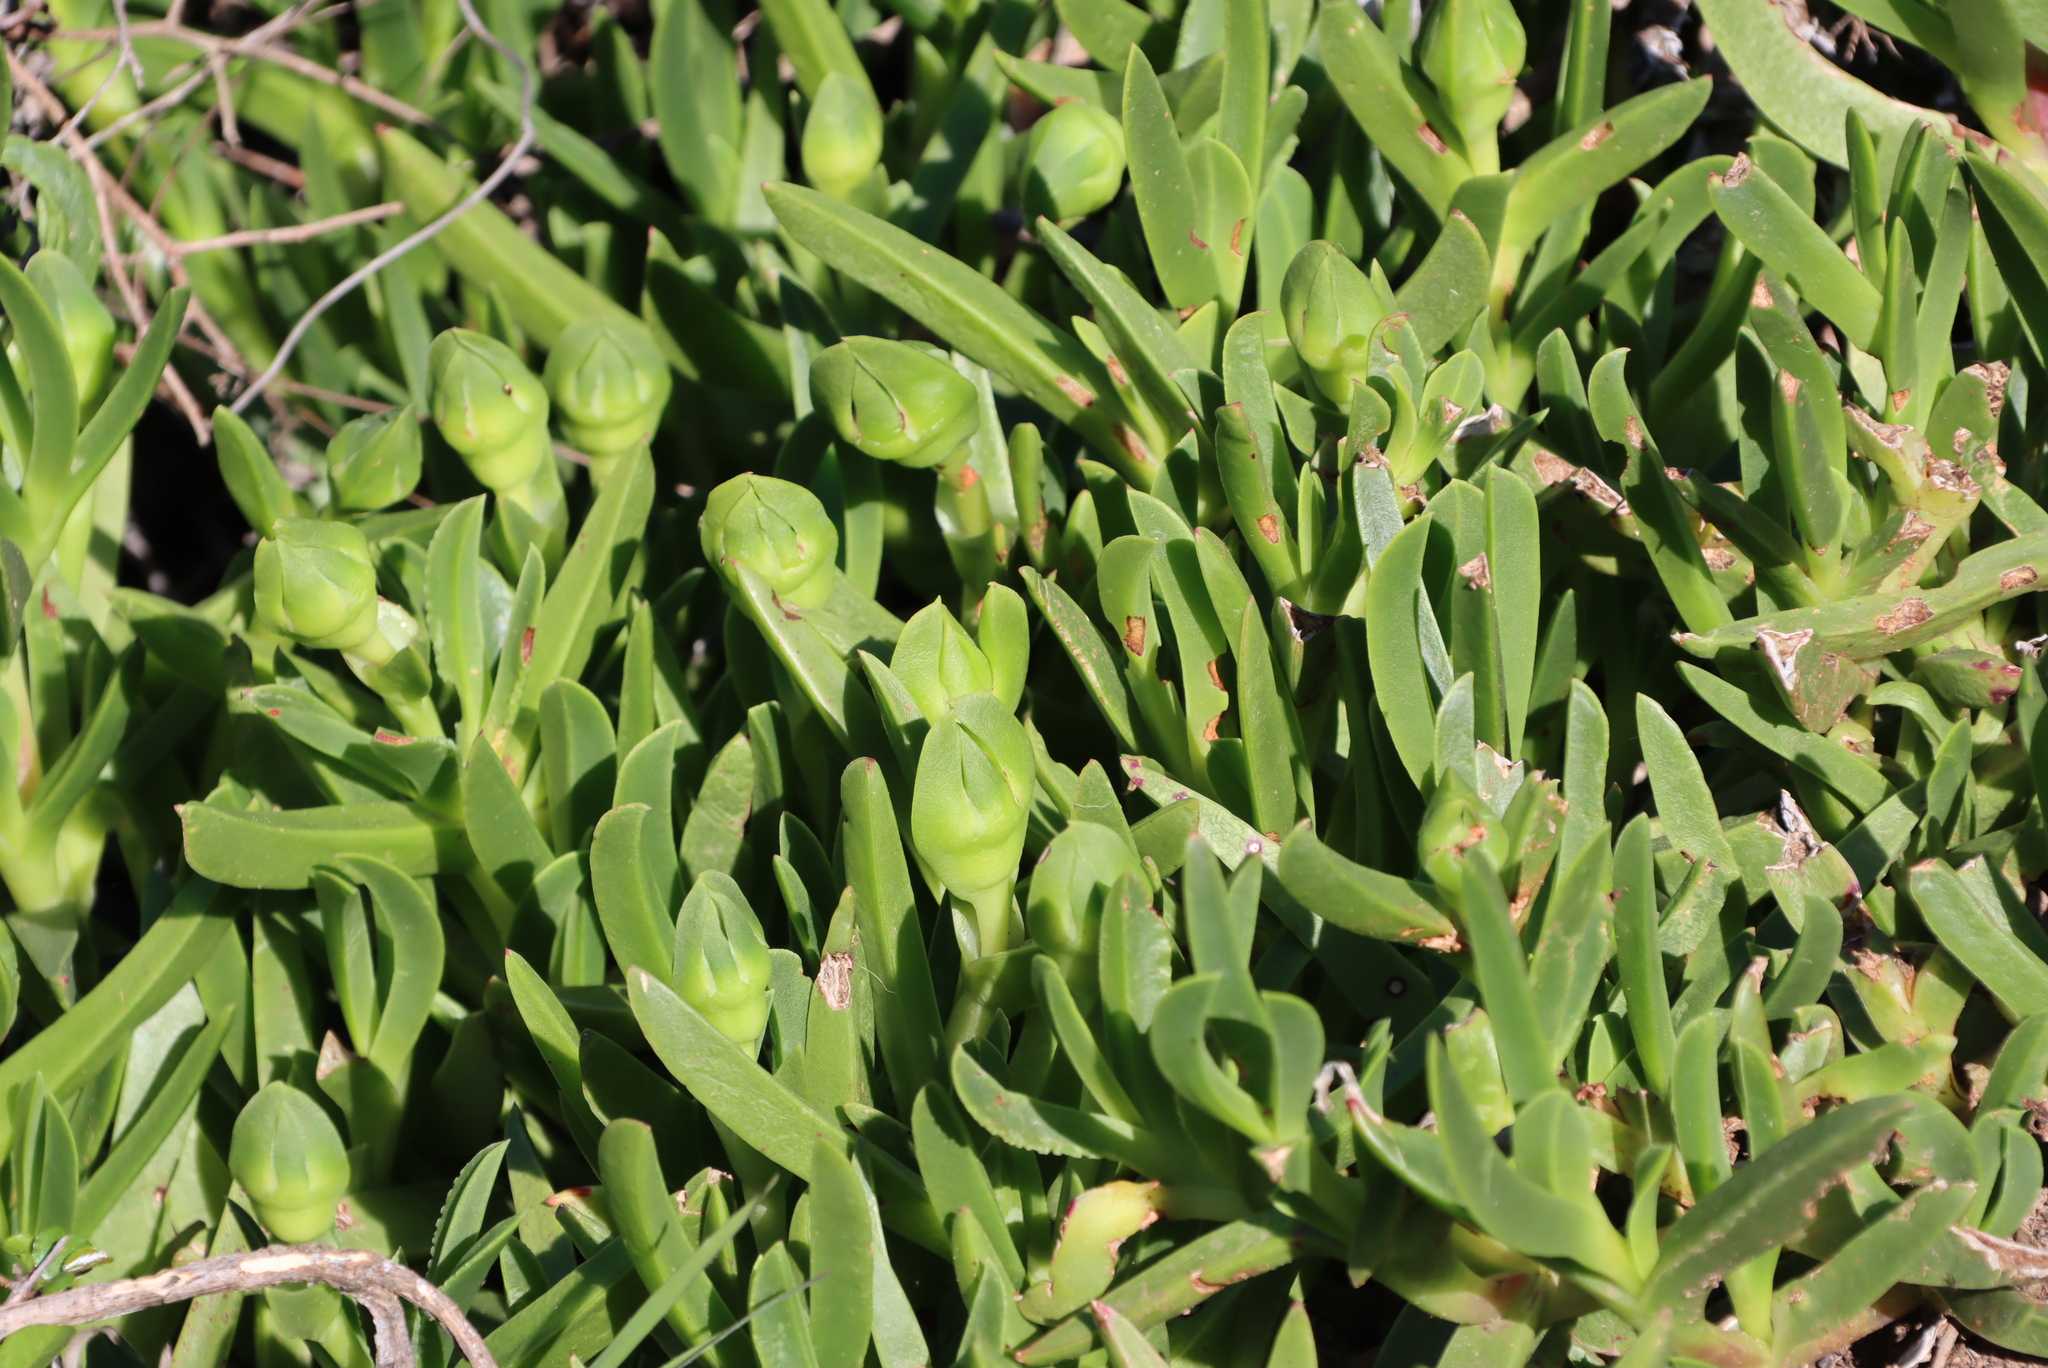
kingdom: Plantae
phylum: Tracheophyta
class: Magnoliopsida
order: Caryophyllales
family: Aizoaceae
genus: Carpobrotus
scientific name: Carpobrotus deliciosus
